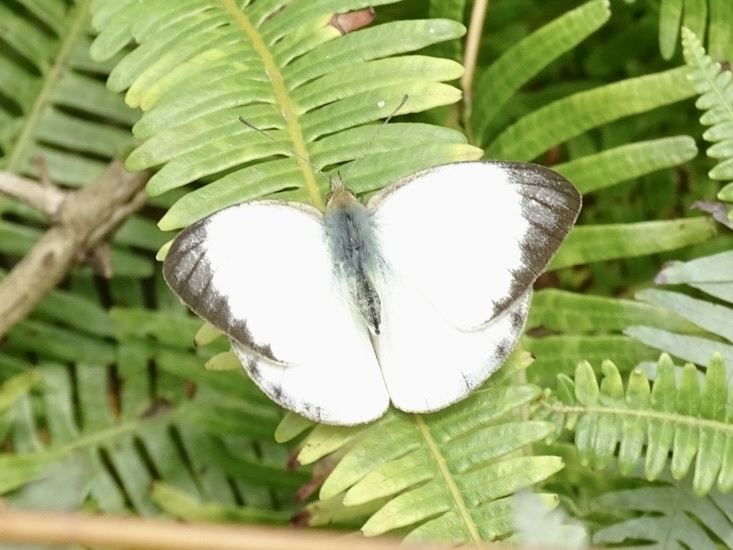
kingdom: Animalia
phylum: Arthropoda
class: Insecta
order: Lepidoptera
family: Pieridae
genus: Cepora
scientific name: Cepora nadina
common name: Lesser gull
